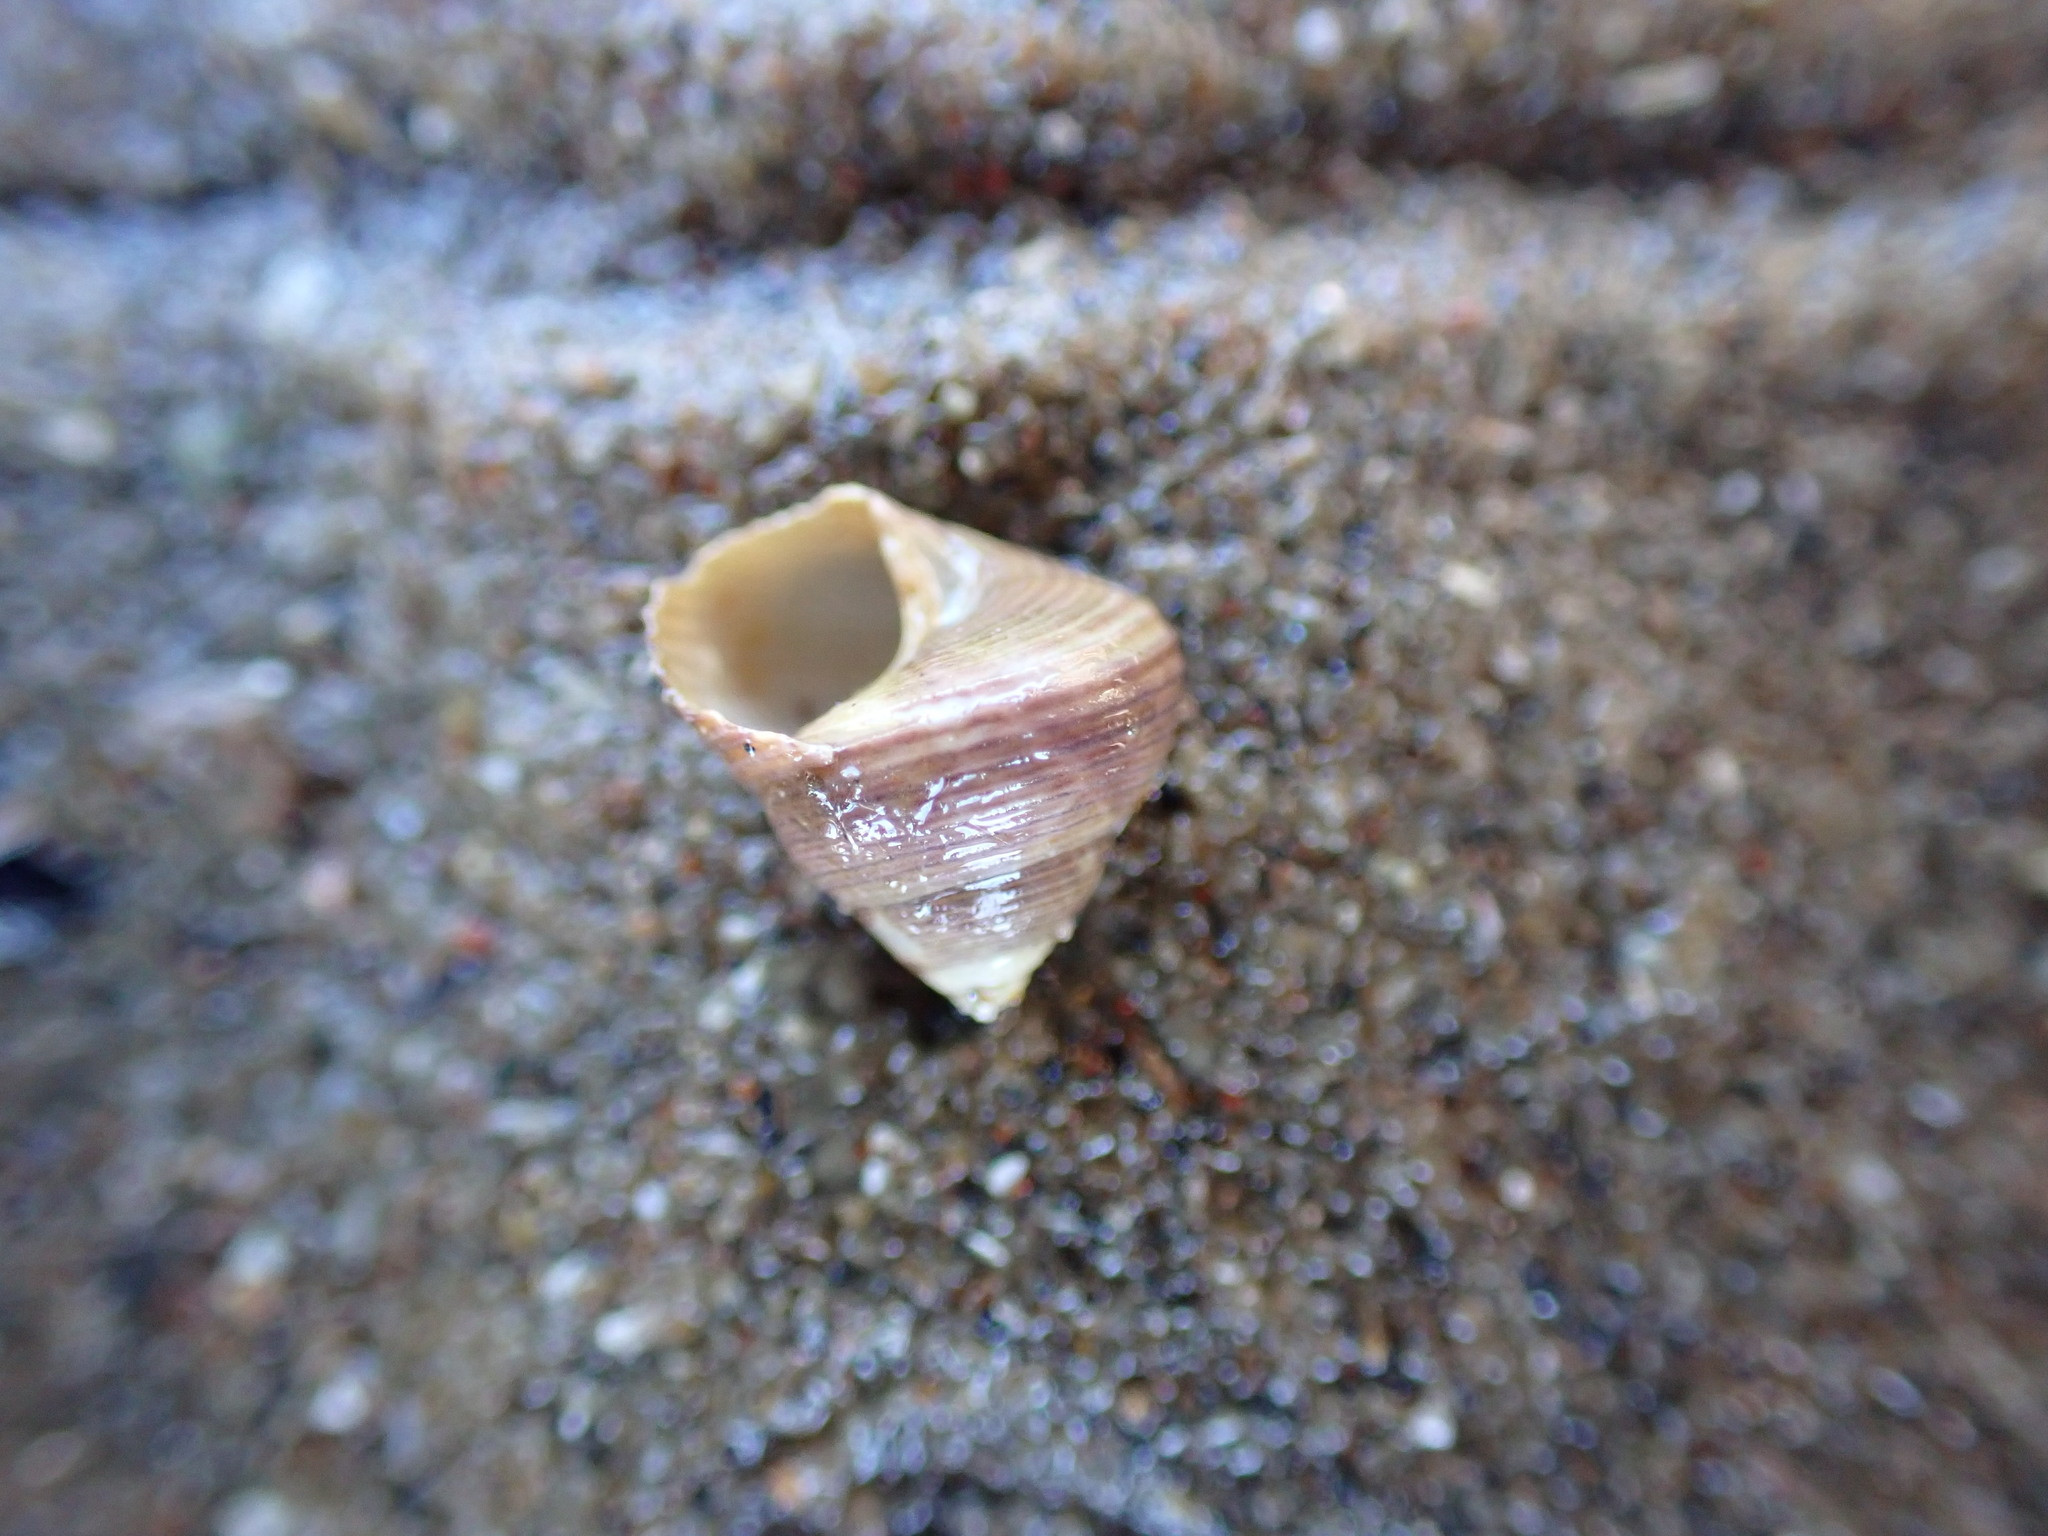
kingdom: Animalia
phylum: Mollusca
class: Gastropoda
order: Trochida
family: Trochidae
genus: Micrelenchus
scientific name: Micrelenchus huttonii
